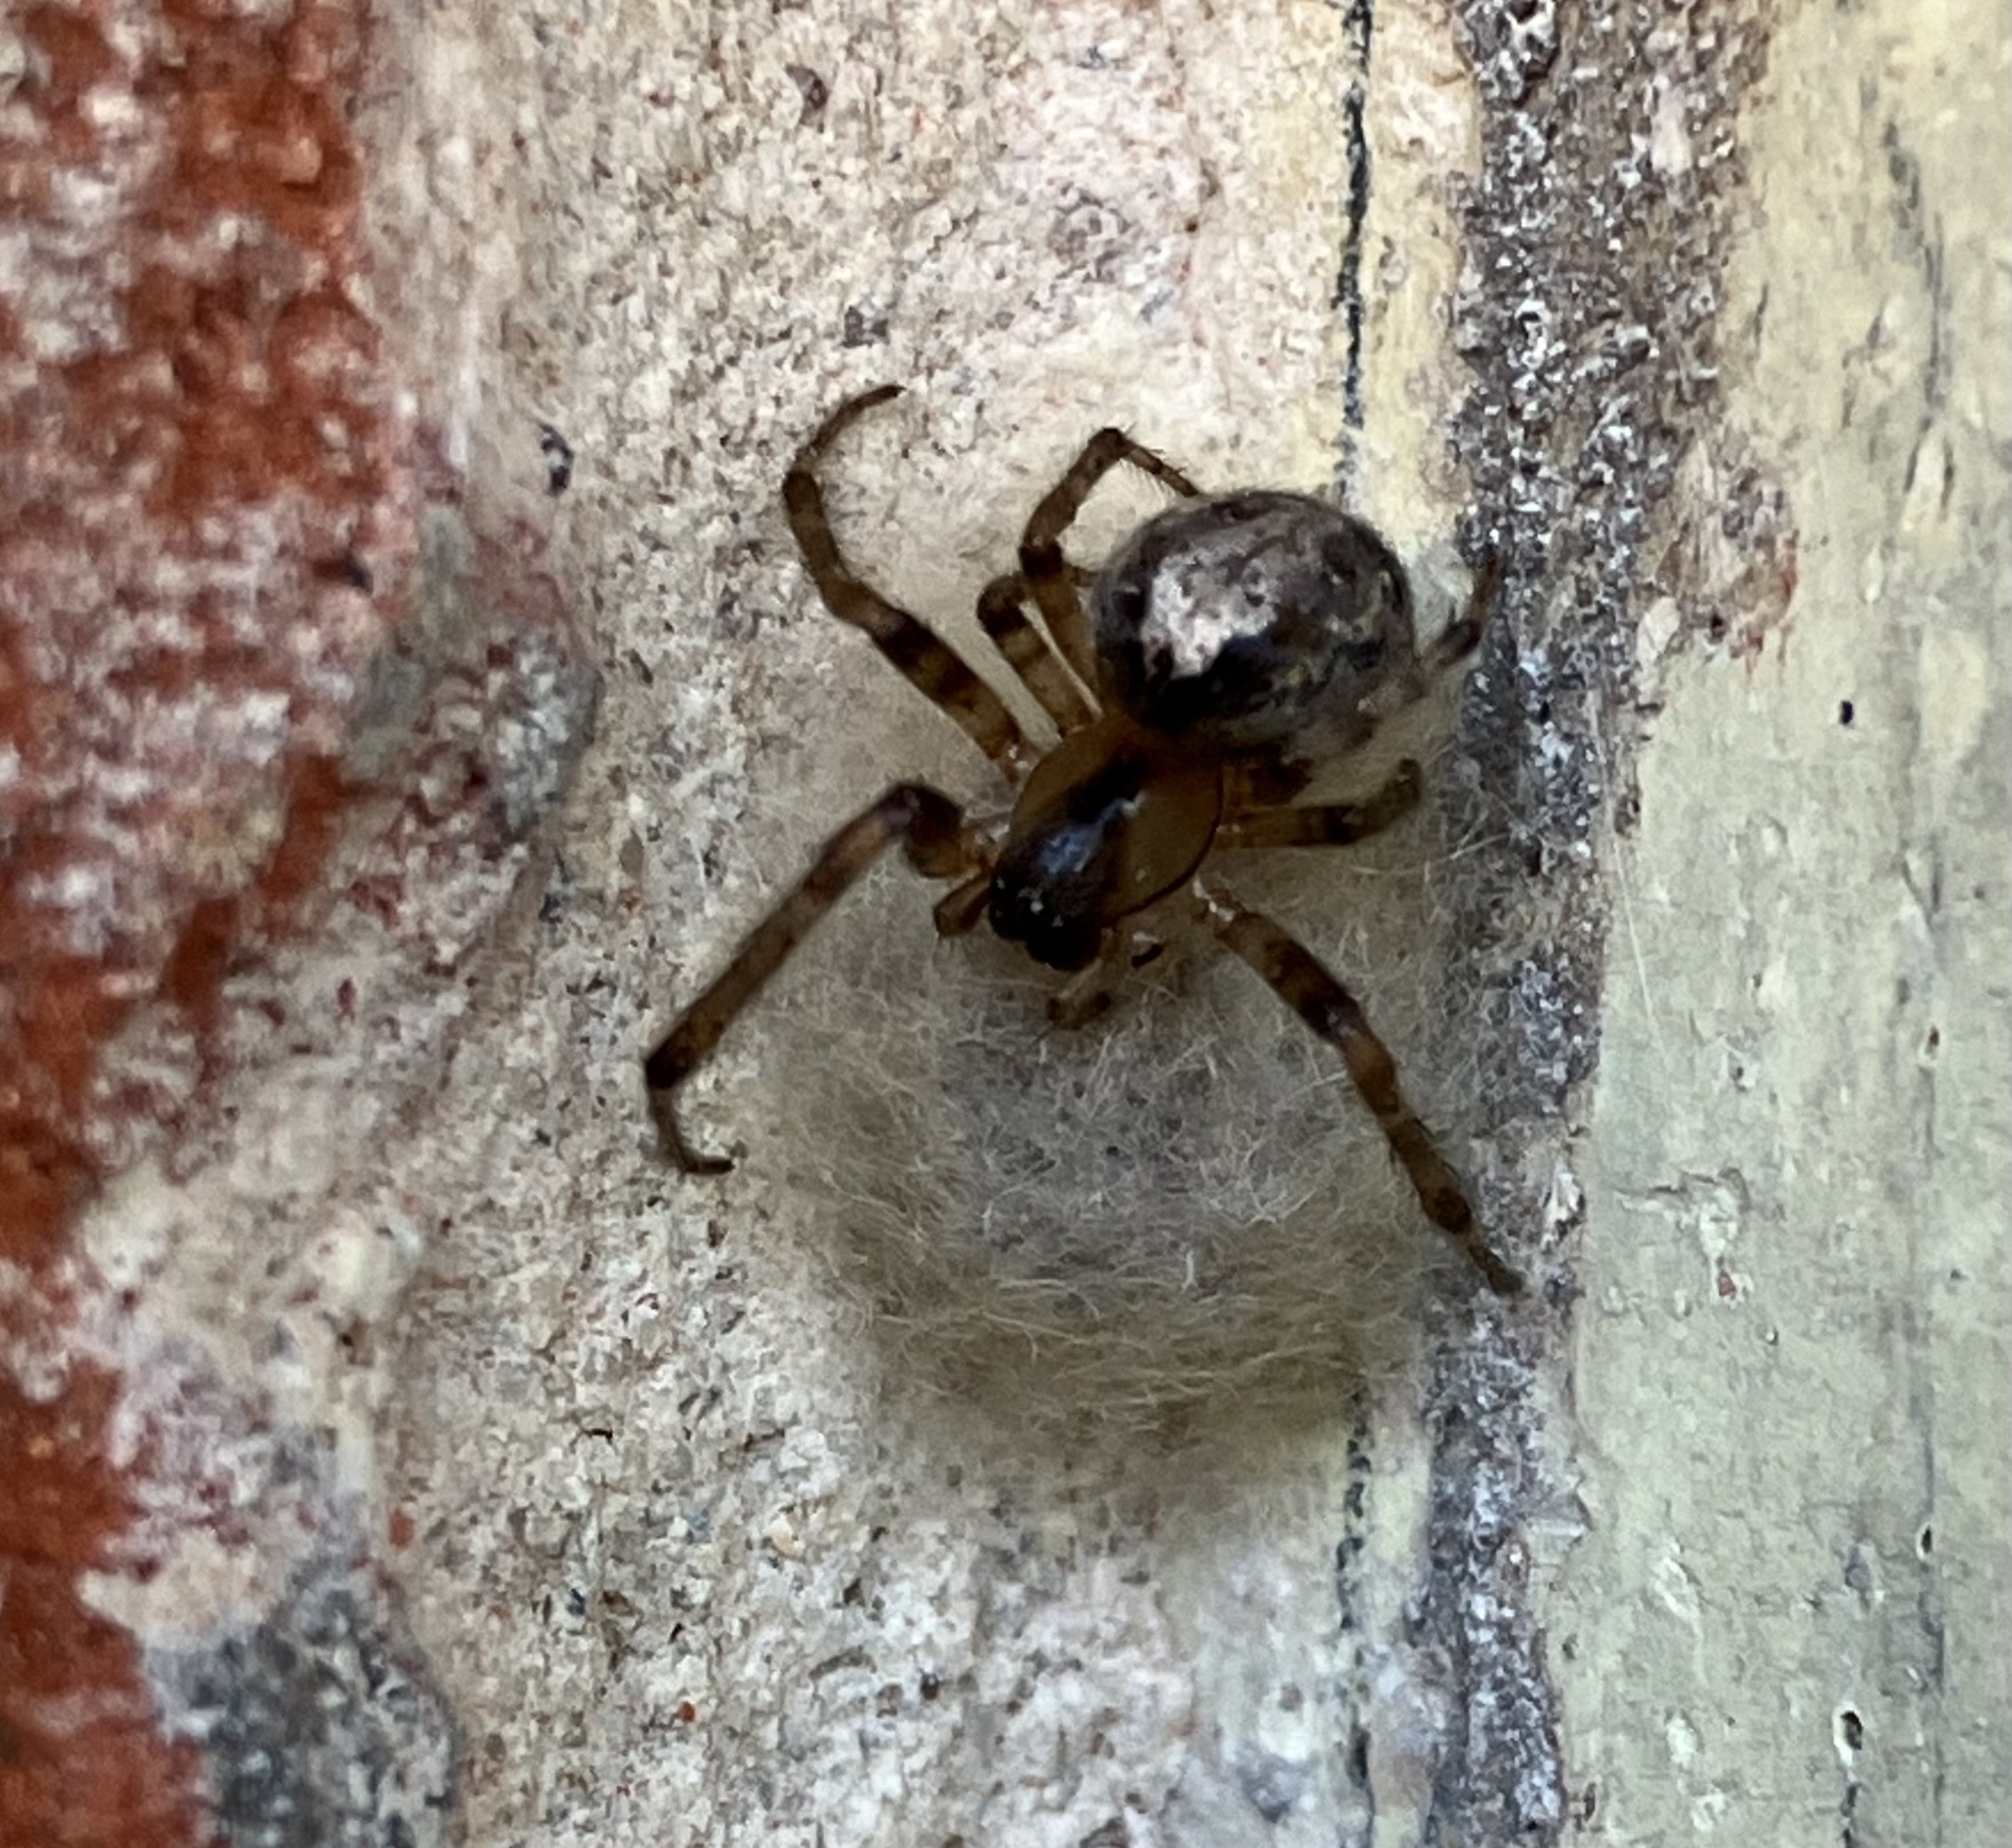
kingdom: Animalia
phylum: Arthropoda
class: Arachnida
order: Araneae
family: Araneidae
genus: Zygiella
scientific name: Zygiella x-notata
